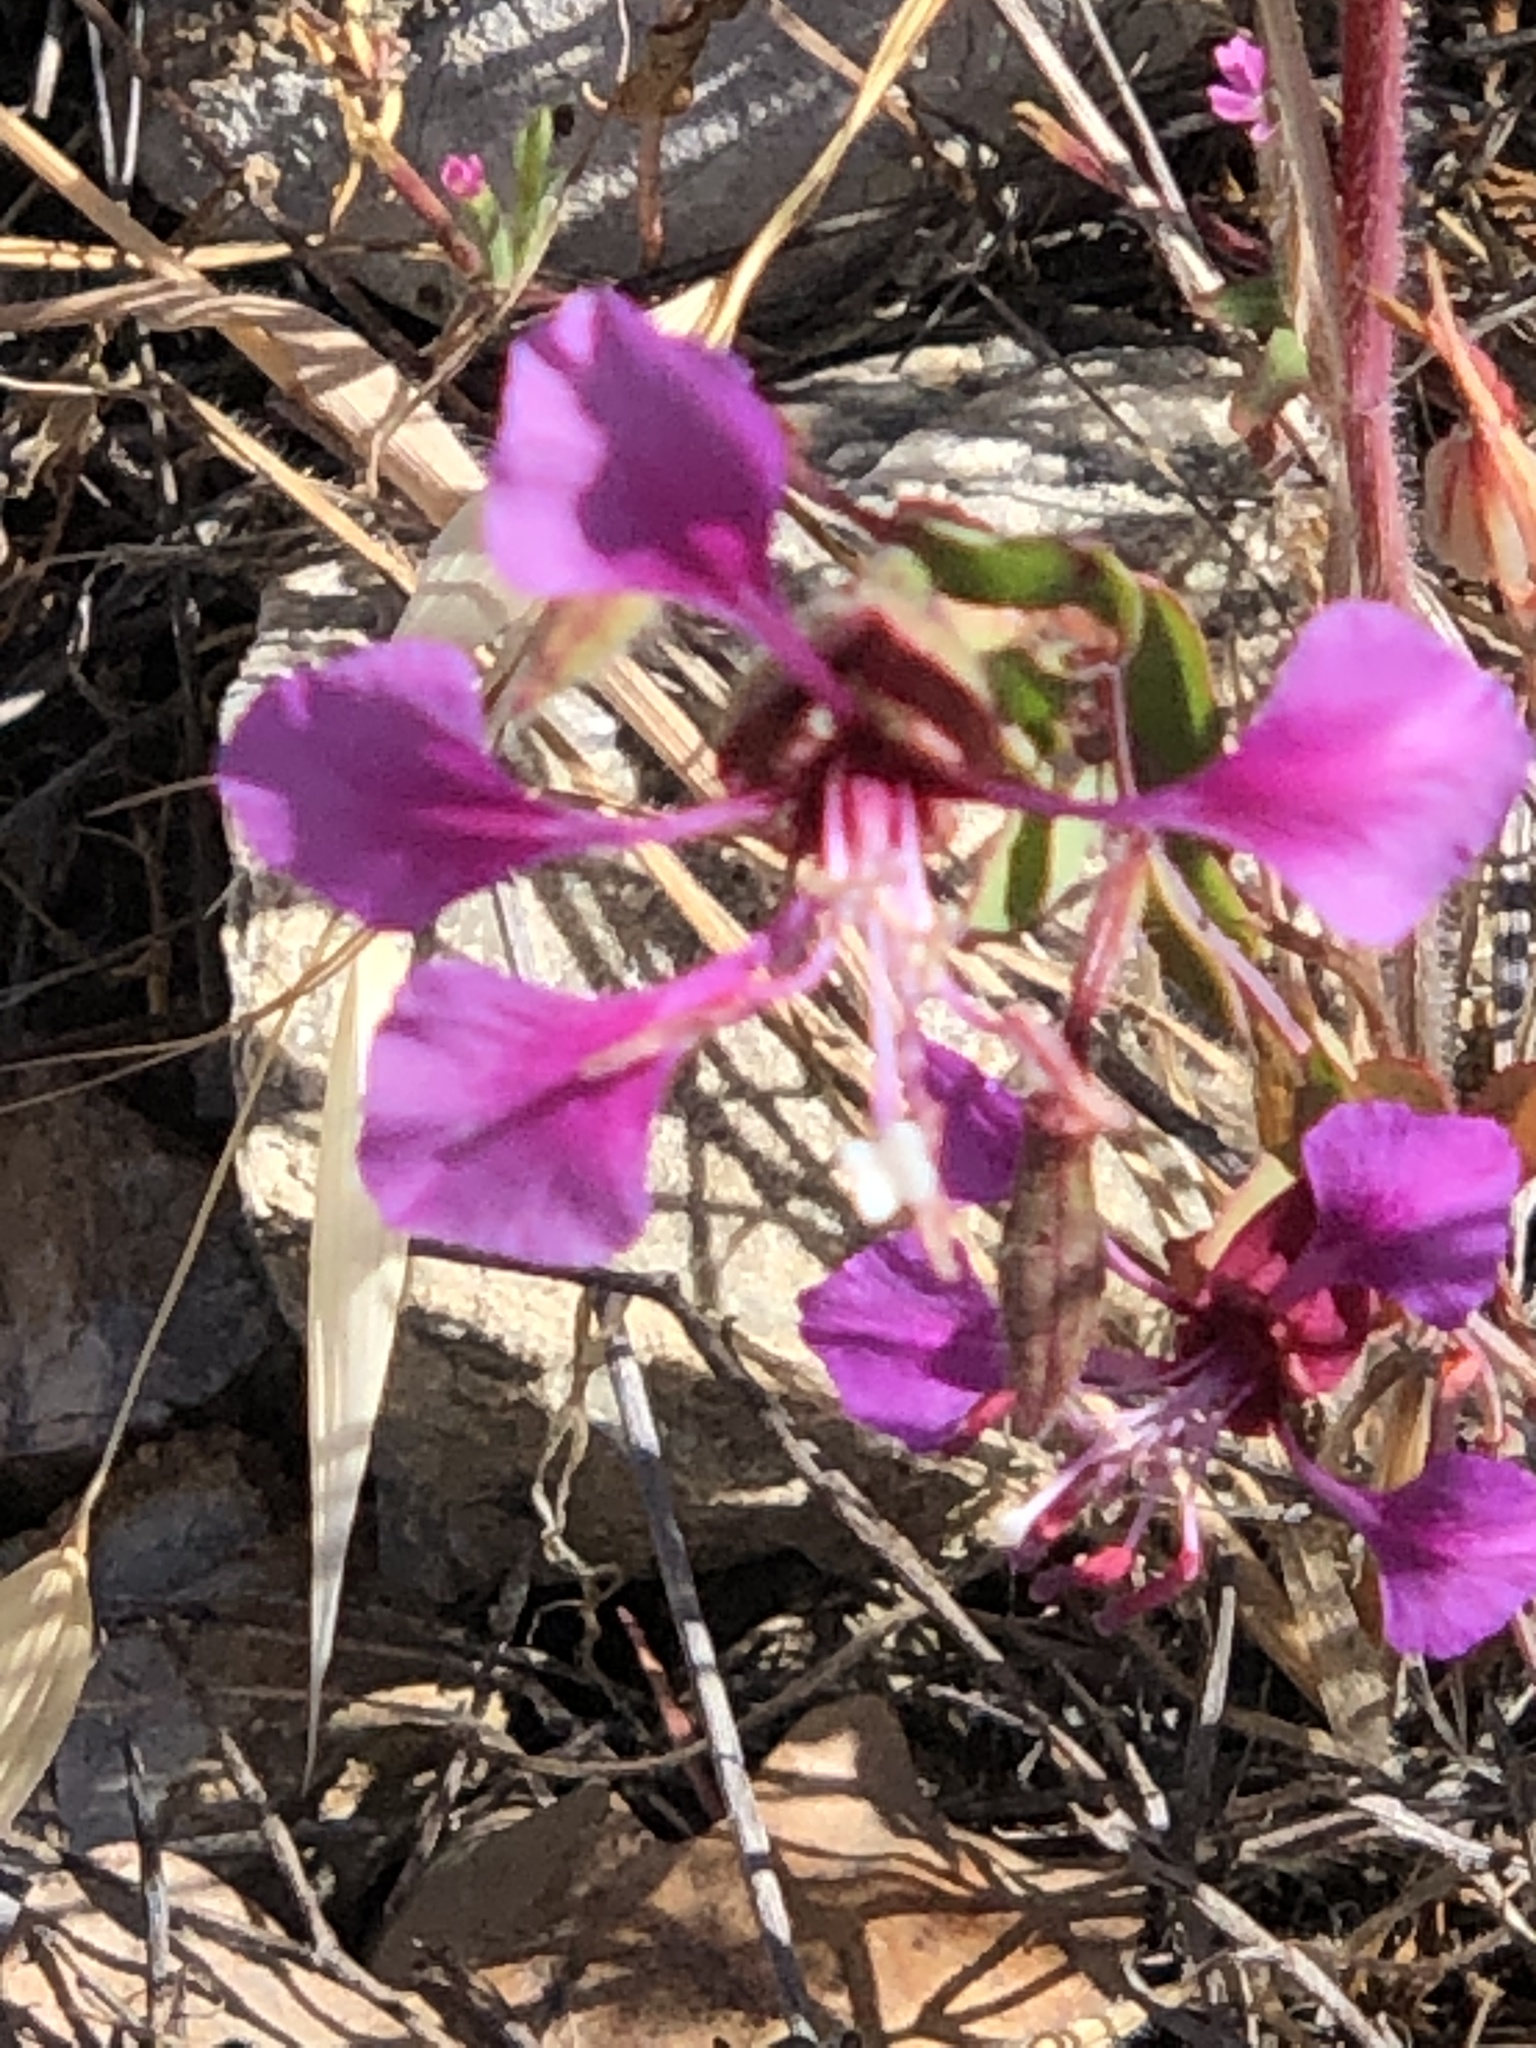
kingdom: Plantae
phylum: Tracheophyta
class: Magnoliopsida
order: Myrtales
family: Onagraceae
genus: Clarkia
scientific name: Clarkia unguiculata
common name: Clarkia
